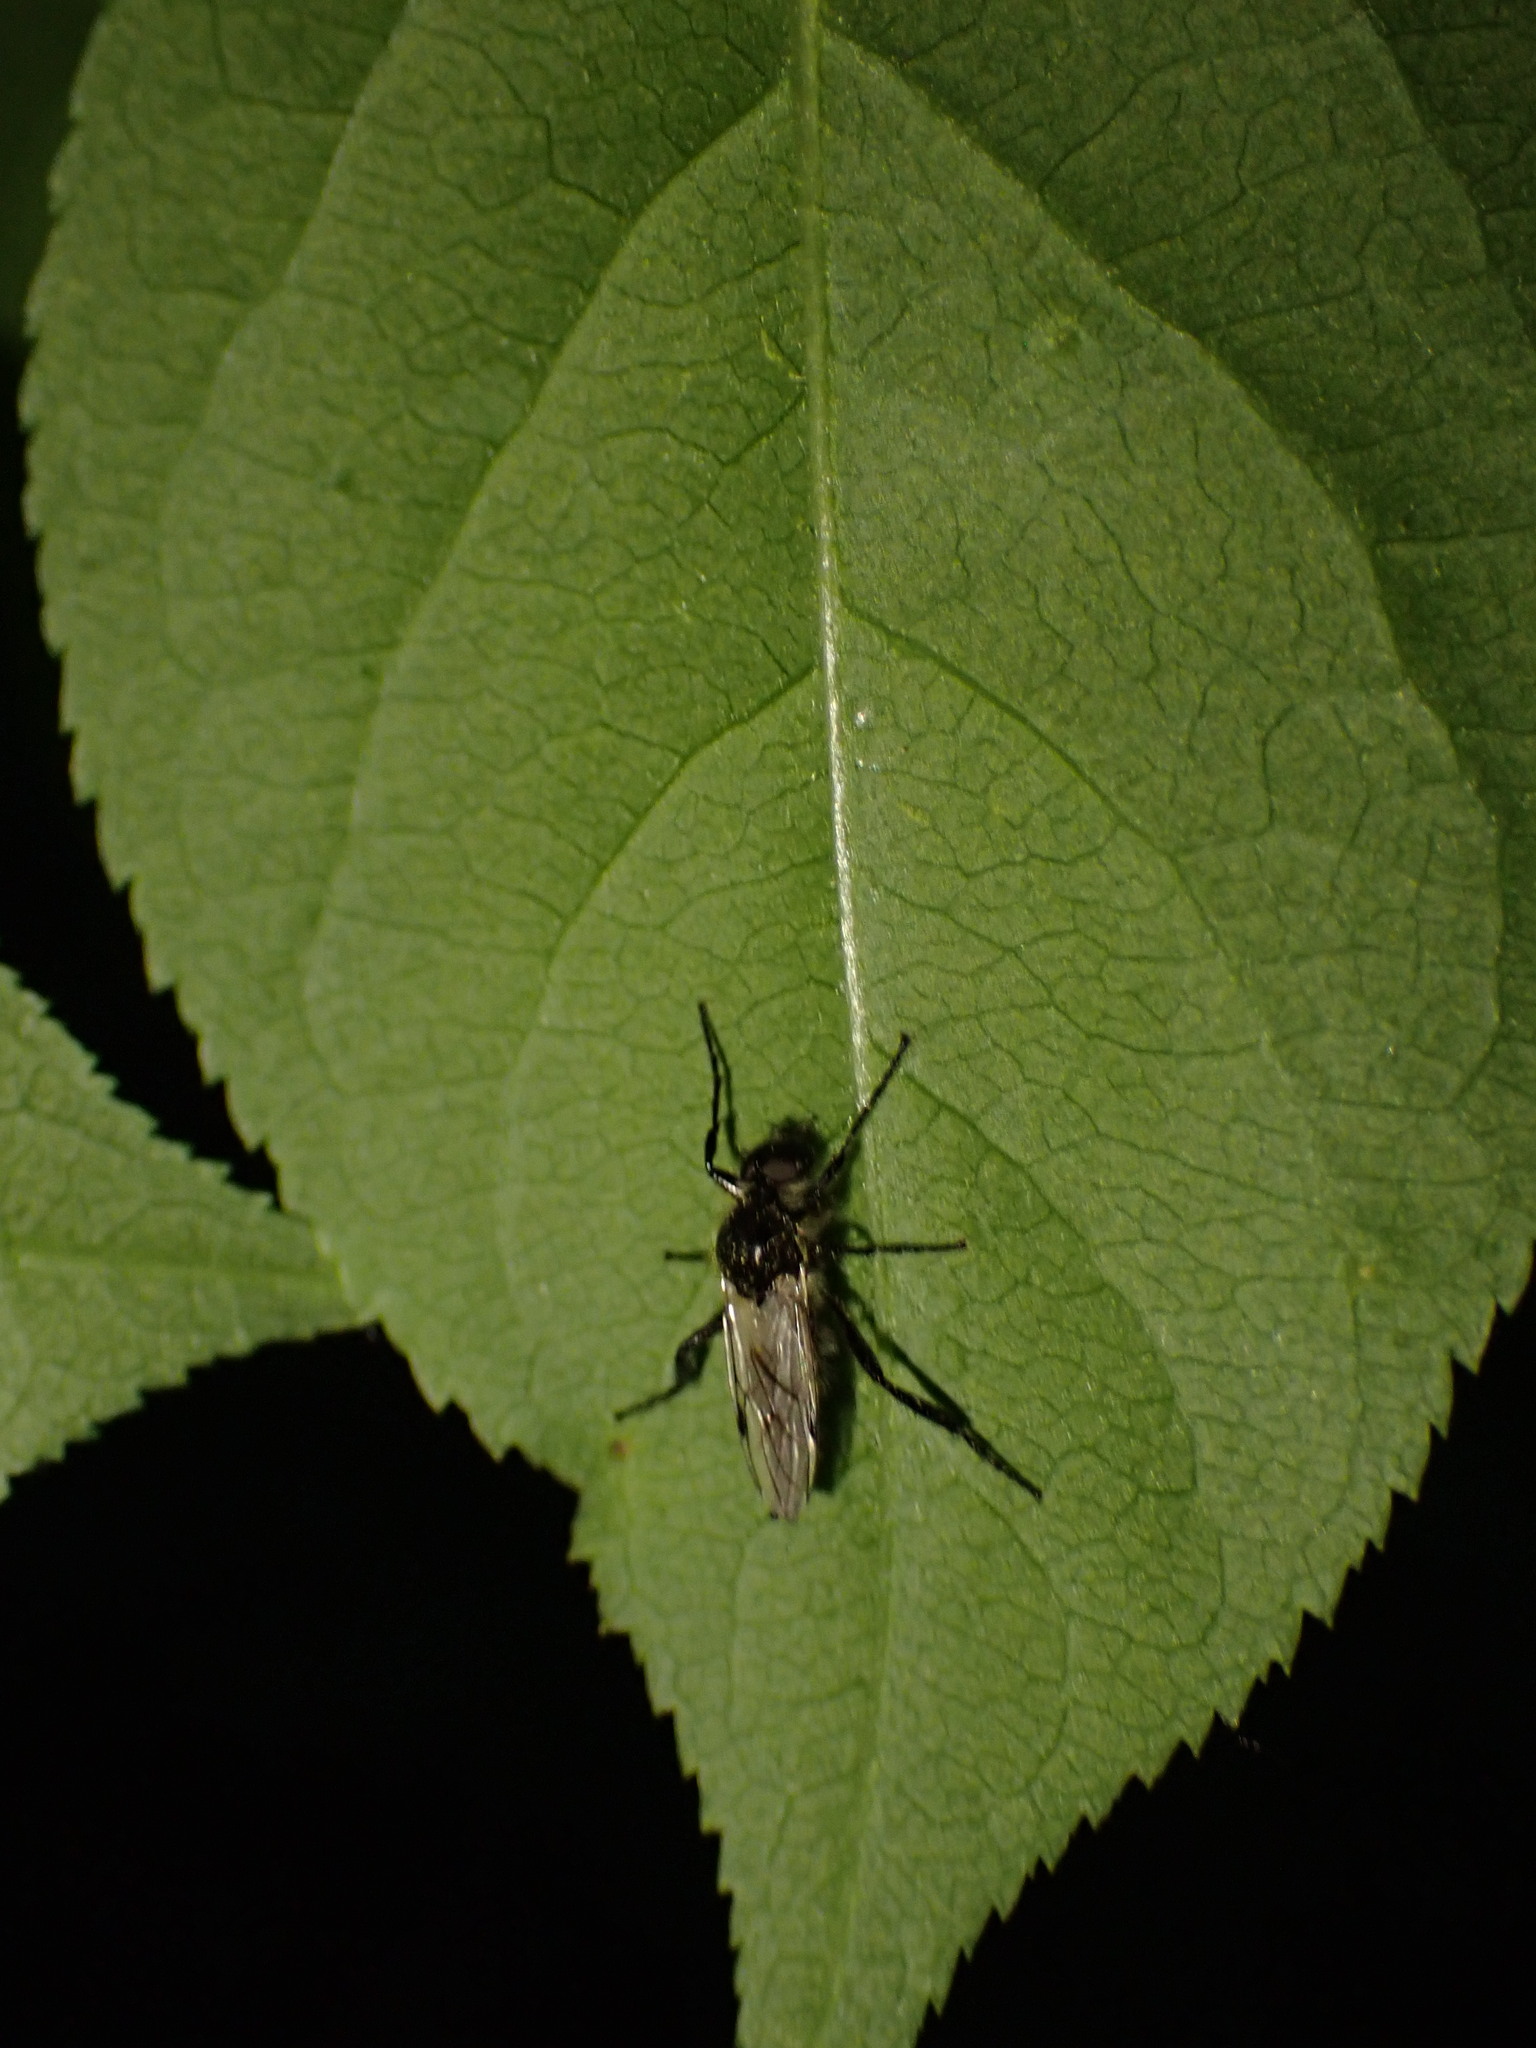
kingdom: Animalia
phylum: Arthropoda
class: Insecta
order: Diptera
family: Bibionidae
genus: Bibio
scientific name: Bibio albipennis
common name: White-winged march fly
